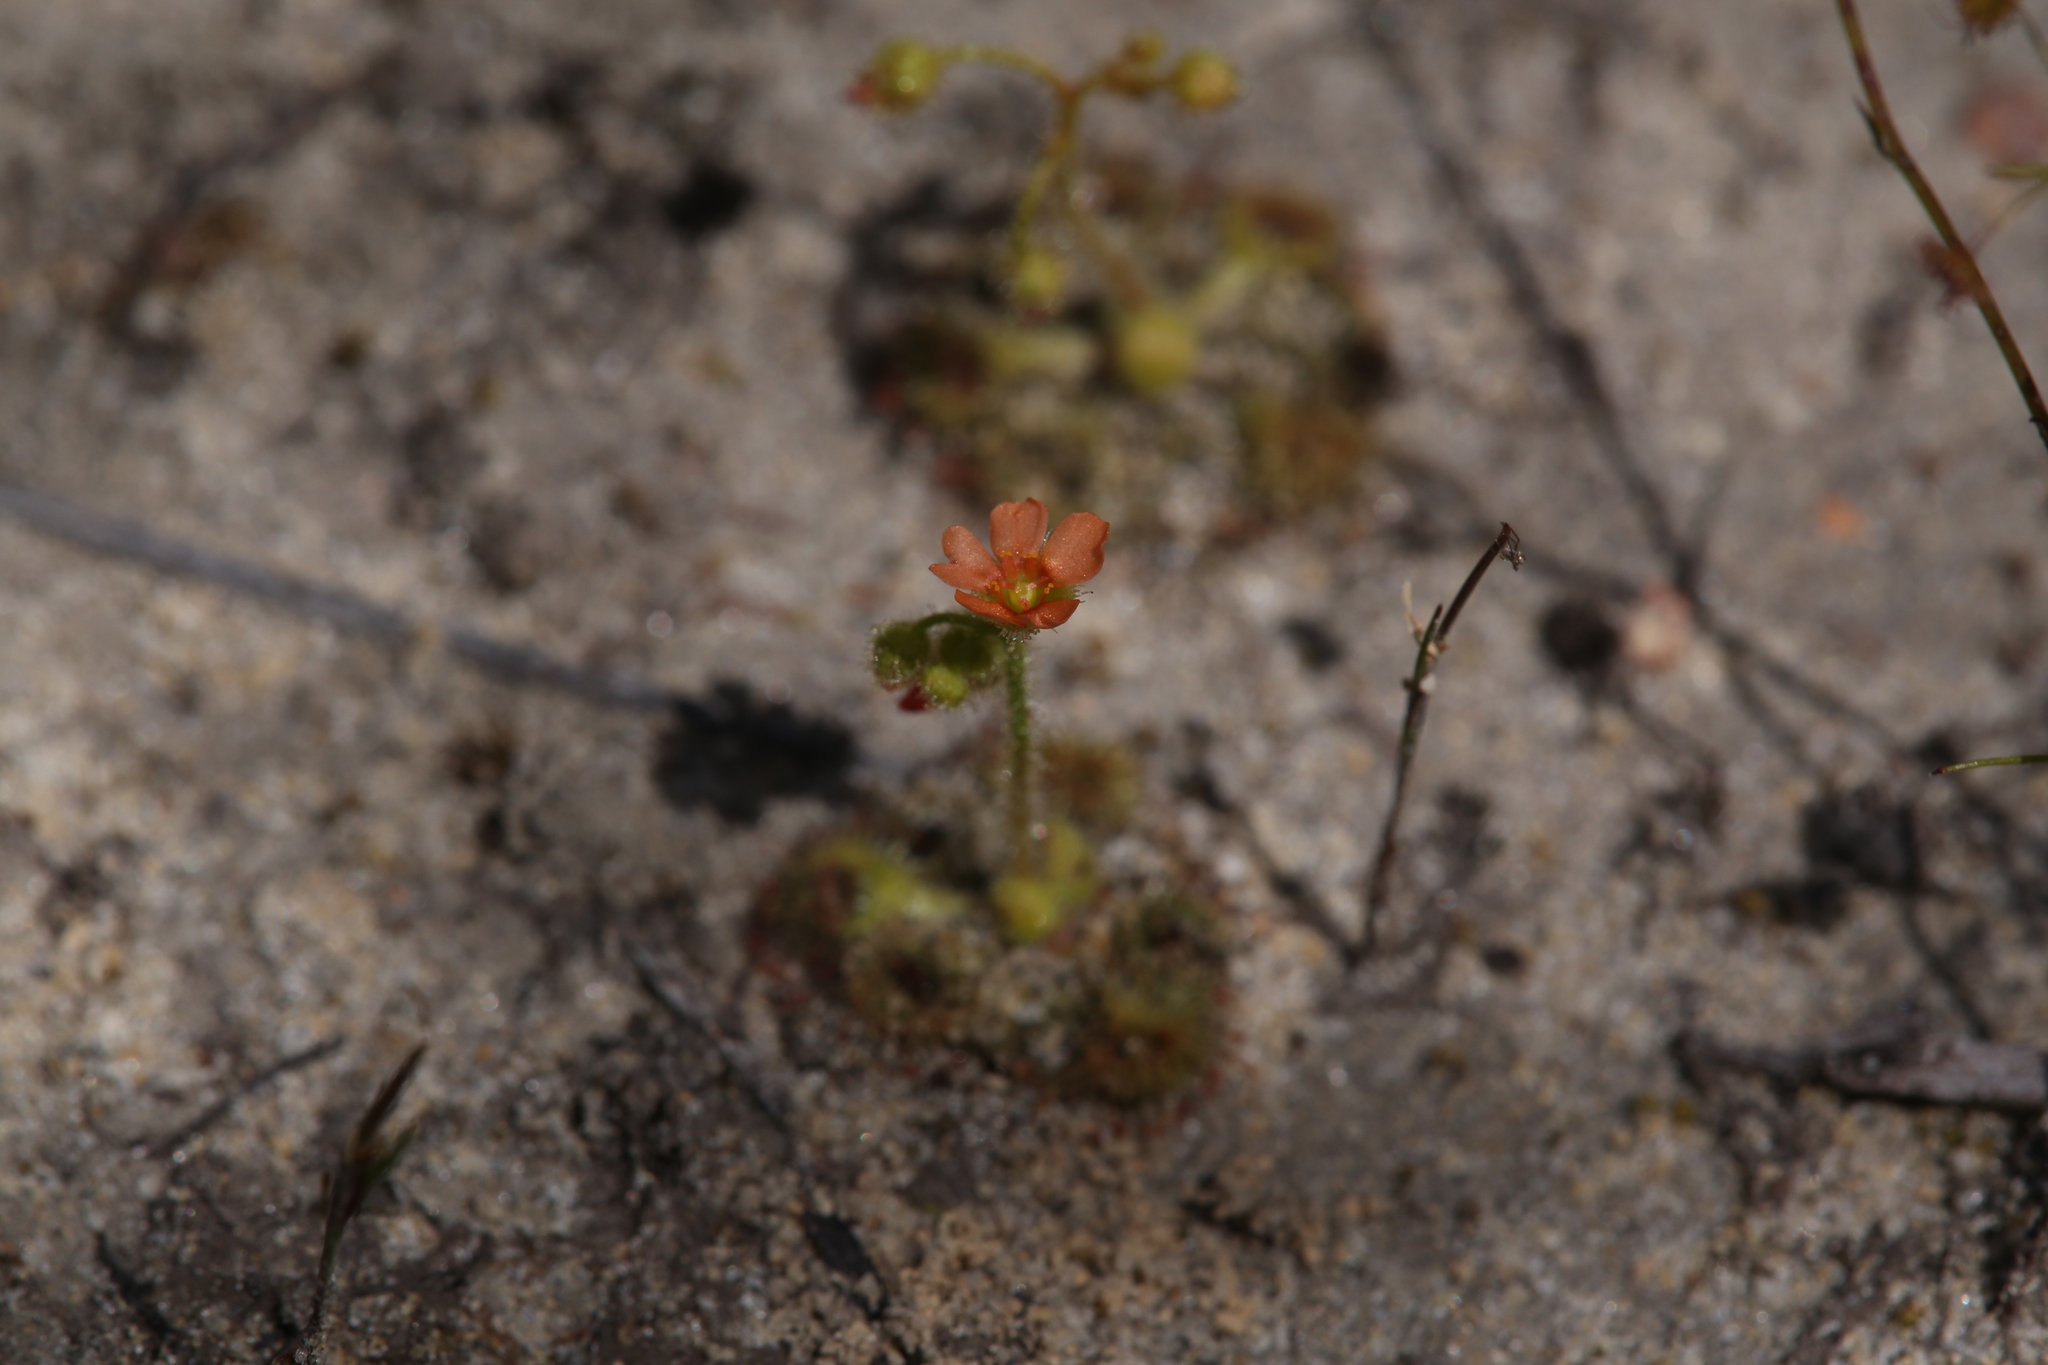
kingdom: Plantae
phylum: Tracheophyta
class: Magnoliopsida
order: Caryophyllales
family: Droseraceae
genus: Drosera
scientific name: Drosera glanduligera
